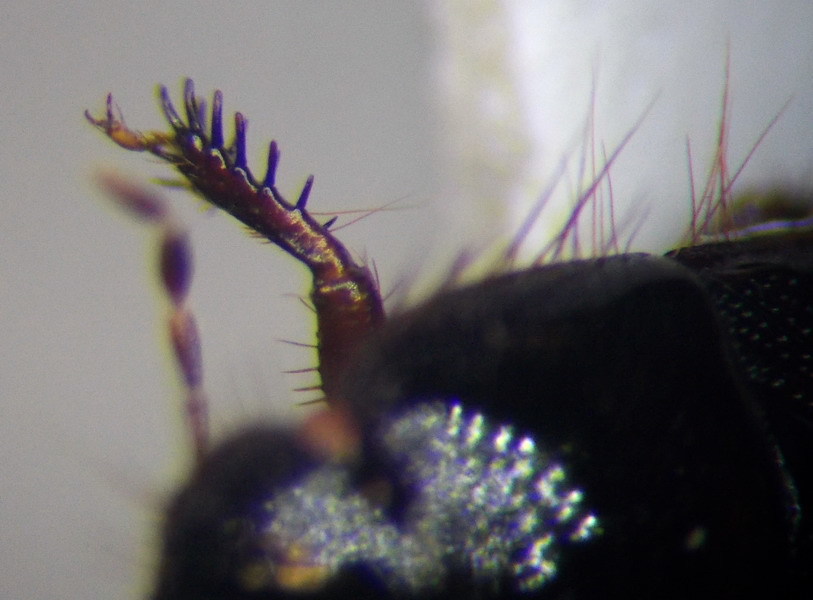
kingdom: Animalia
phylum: Arthropoda
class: Insecta
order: Hemiptera
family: Cydnidae
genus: Byrsinus
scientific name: Byrsinus rugosus
